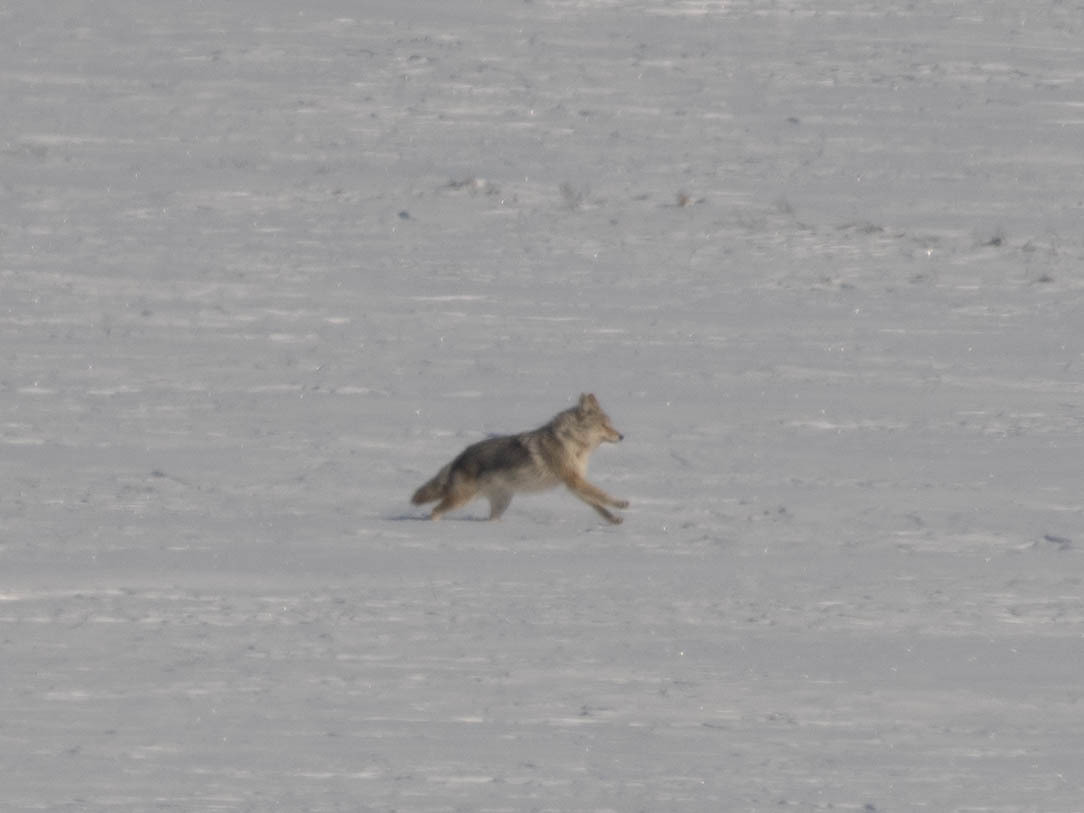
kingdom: Animalia
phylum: Chordata
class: Mammalia
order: Carnivora
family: Canidae
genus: Canis
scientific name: Canis latrans
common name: Coyote
